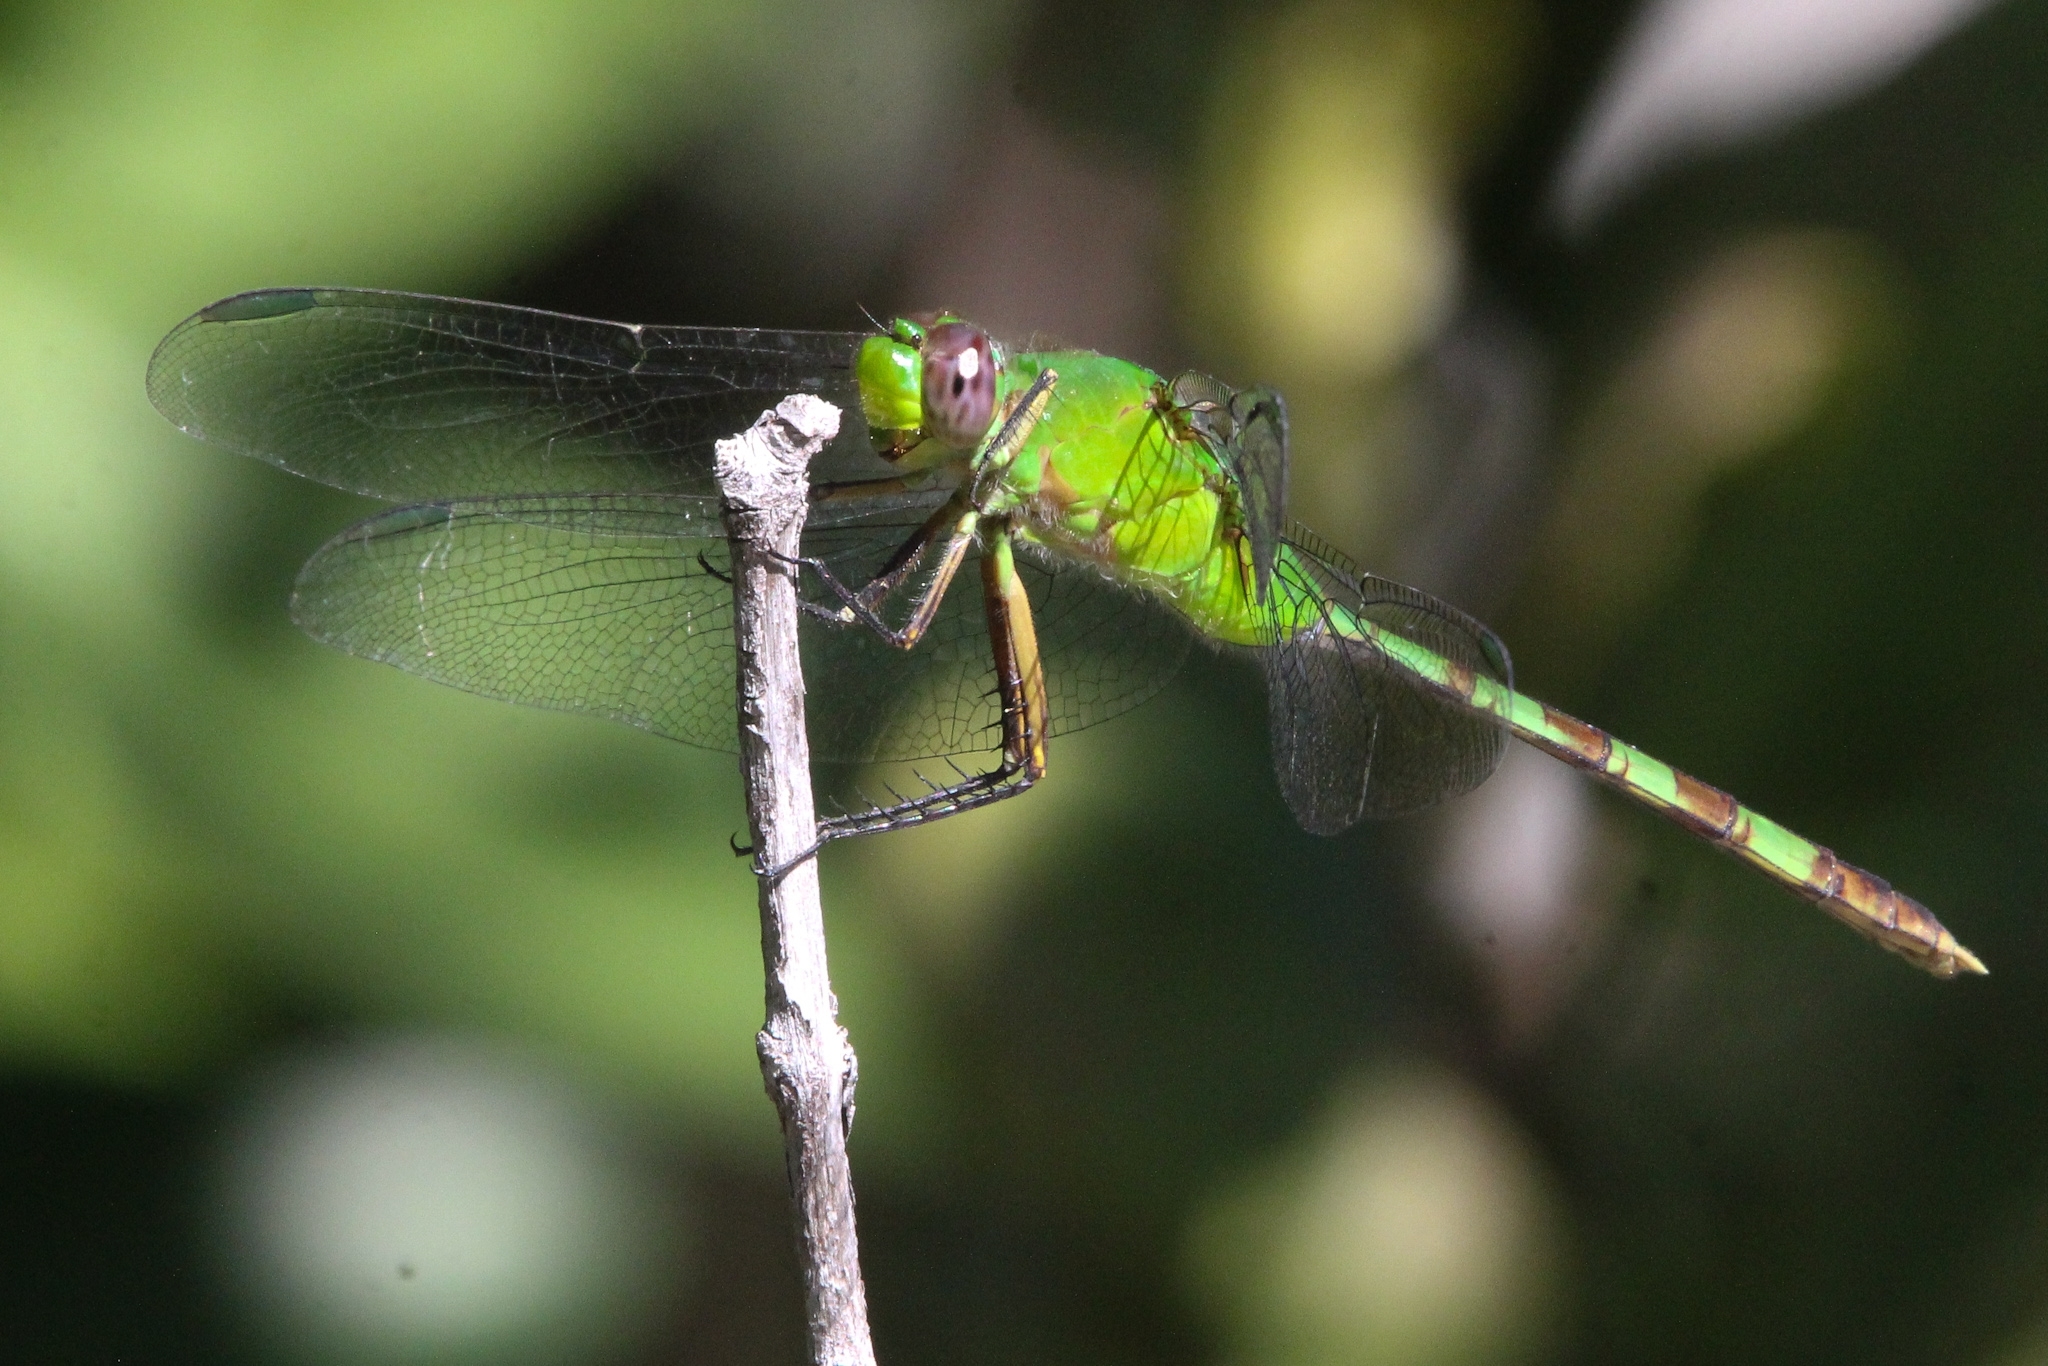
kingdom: Animalia
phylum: Arthropoda
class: Insecta
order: Odonata
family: Libellulidae
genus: Erythemis
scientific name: Erythemis vesiculosa
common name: Great pondhawk
